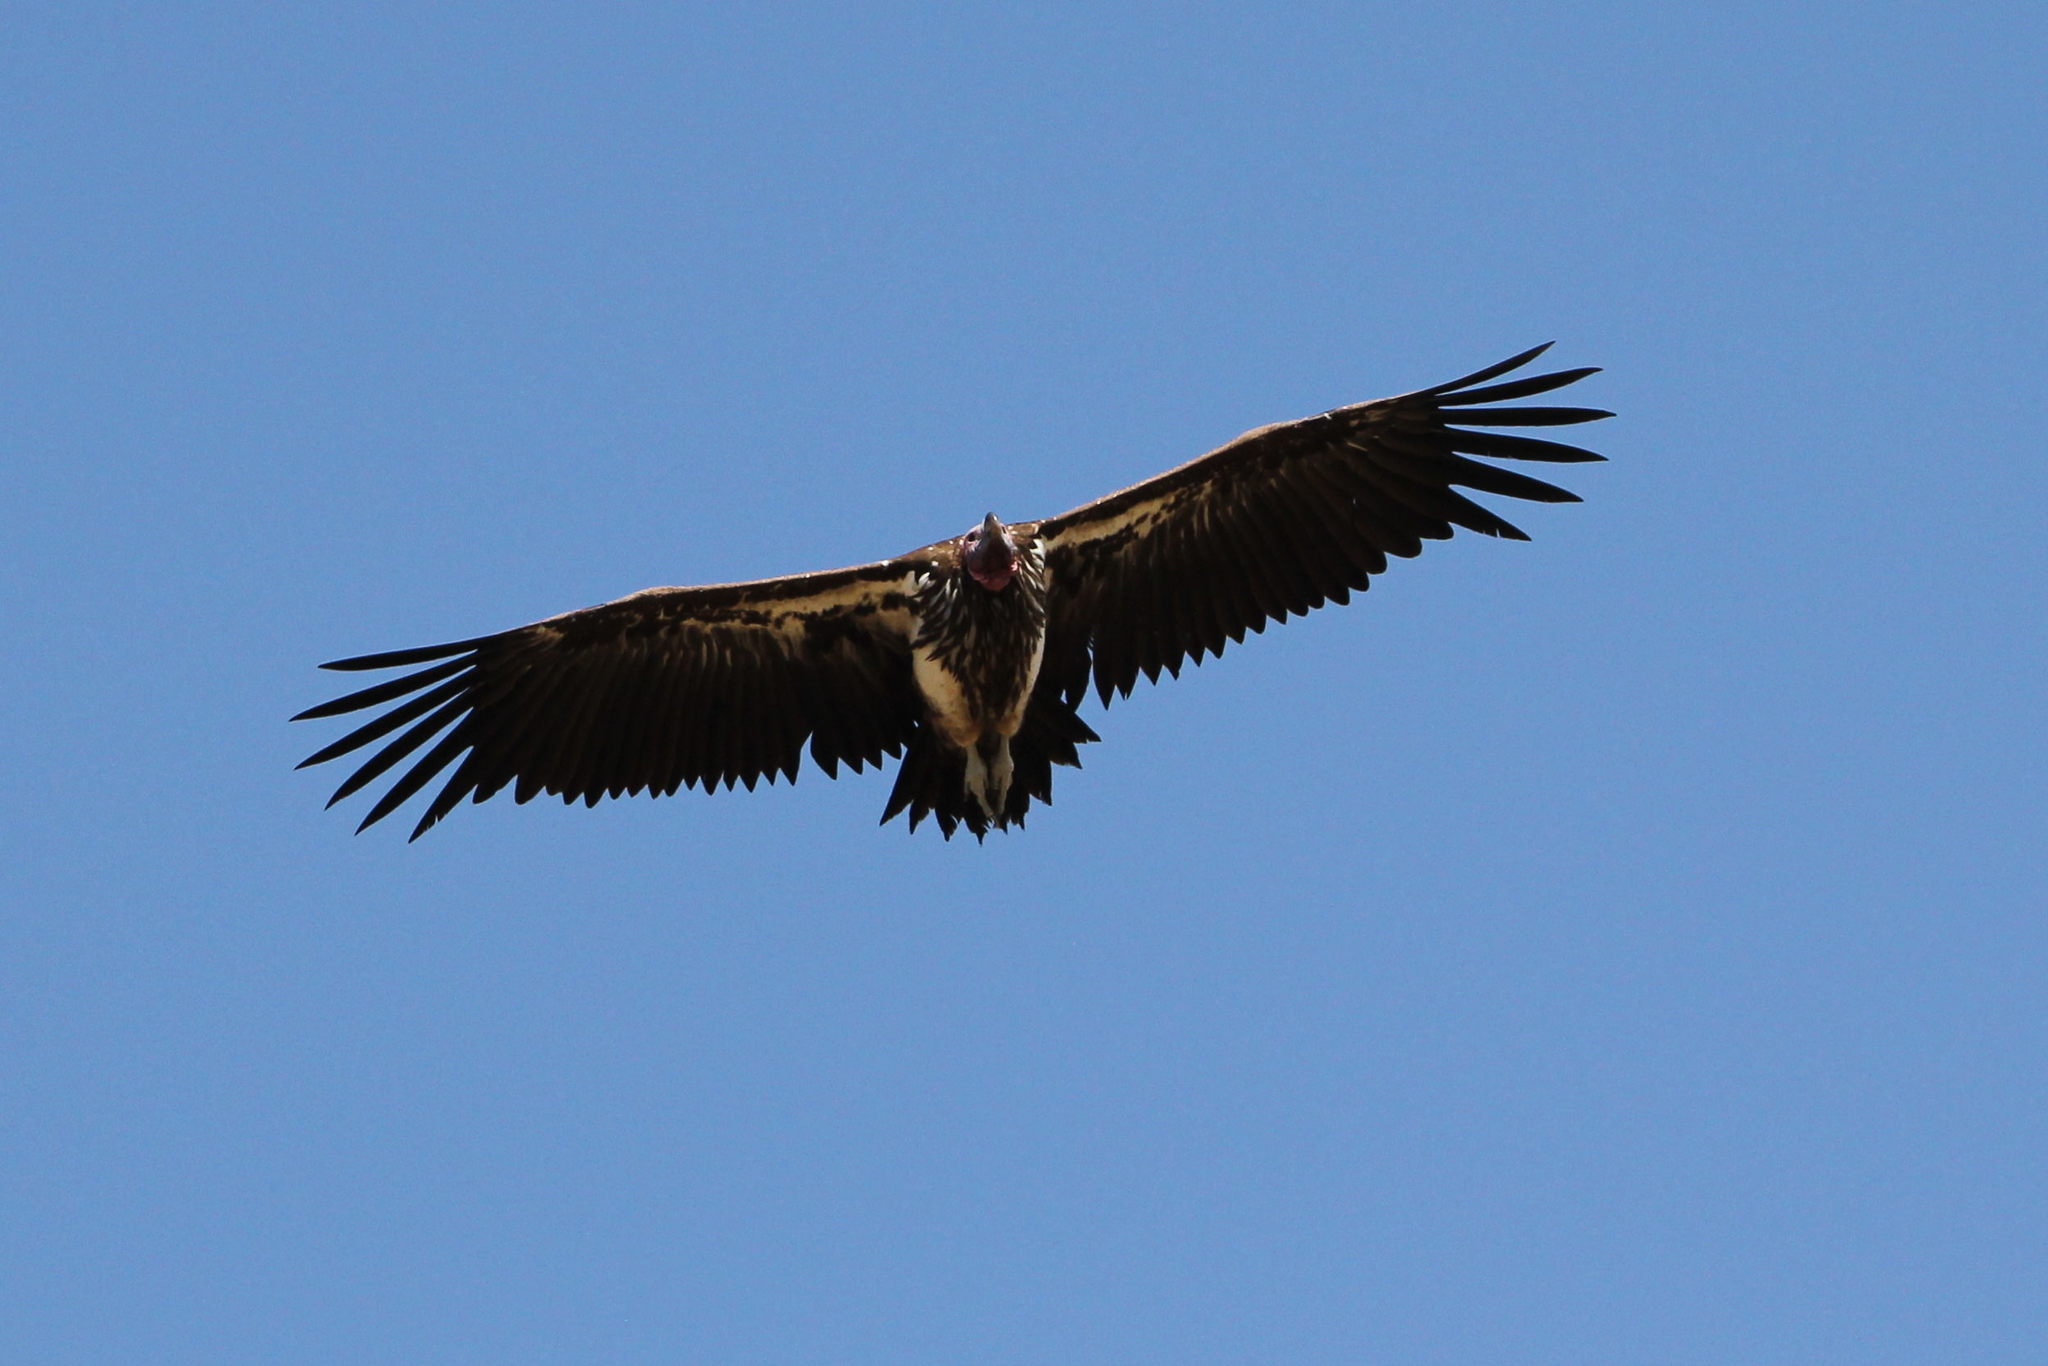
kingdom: Animalia
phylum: Chordata
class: Aves
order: Accipitriformes
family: Accipitridae
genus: Torgos
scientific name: Torgos tracheliotos
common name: Lappet-faced vulture
